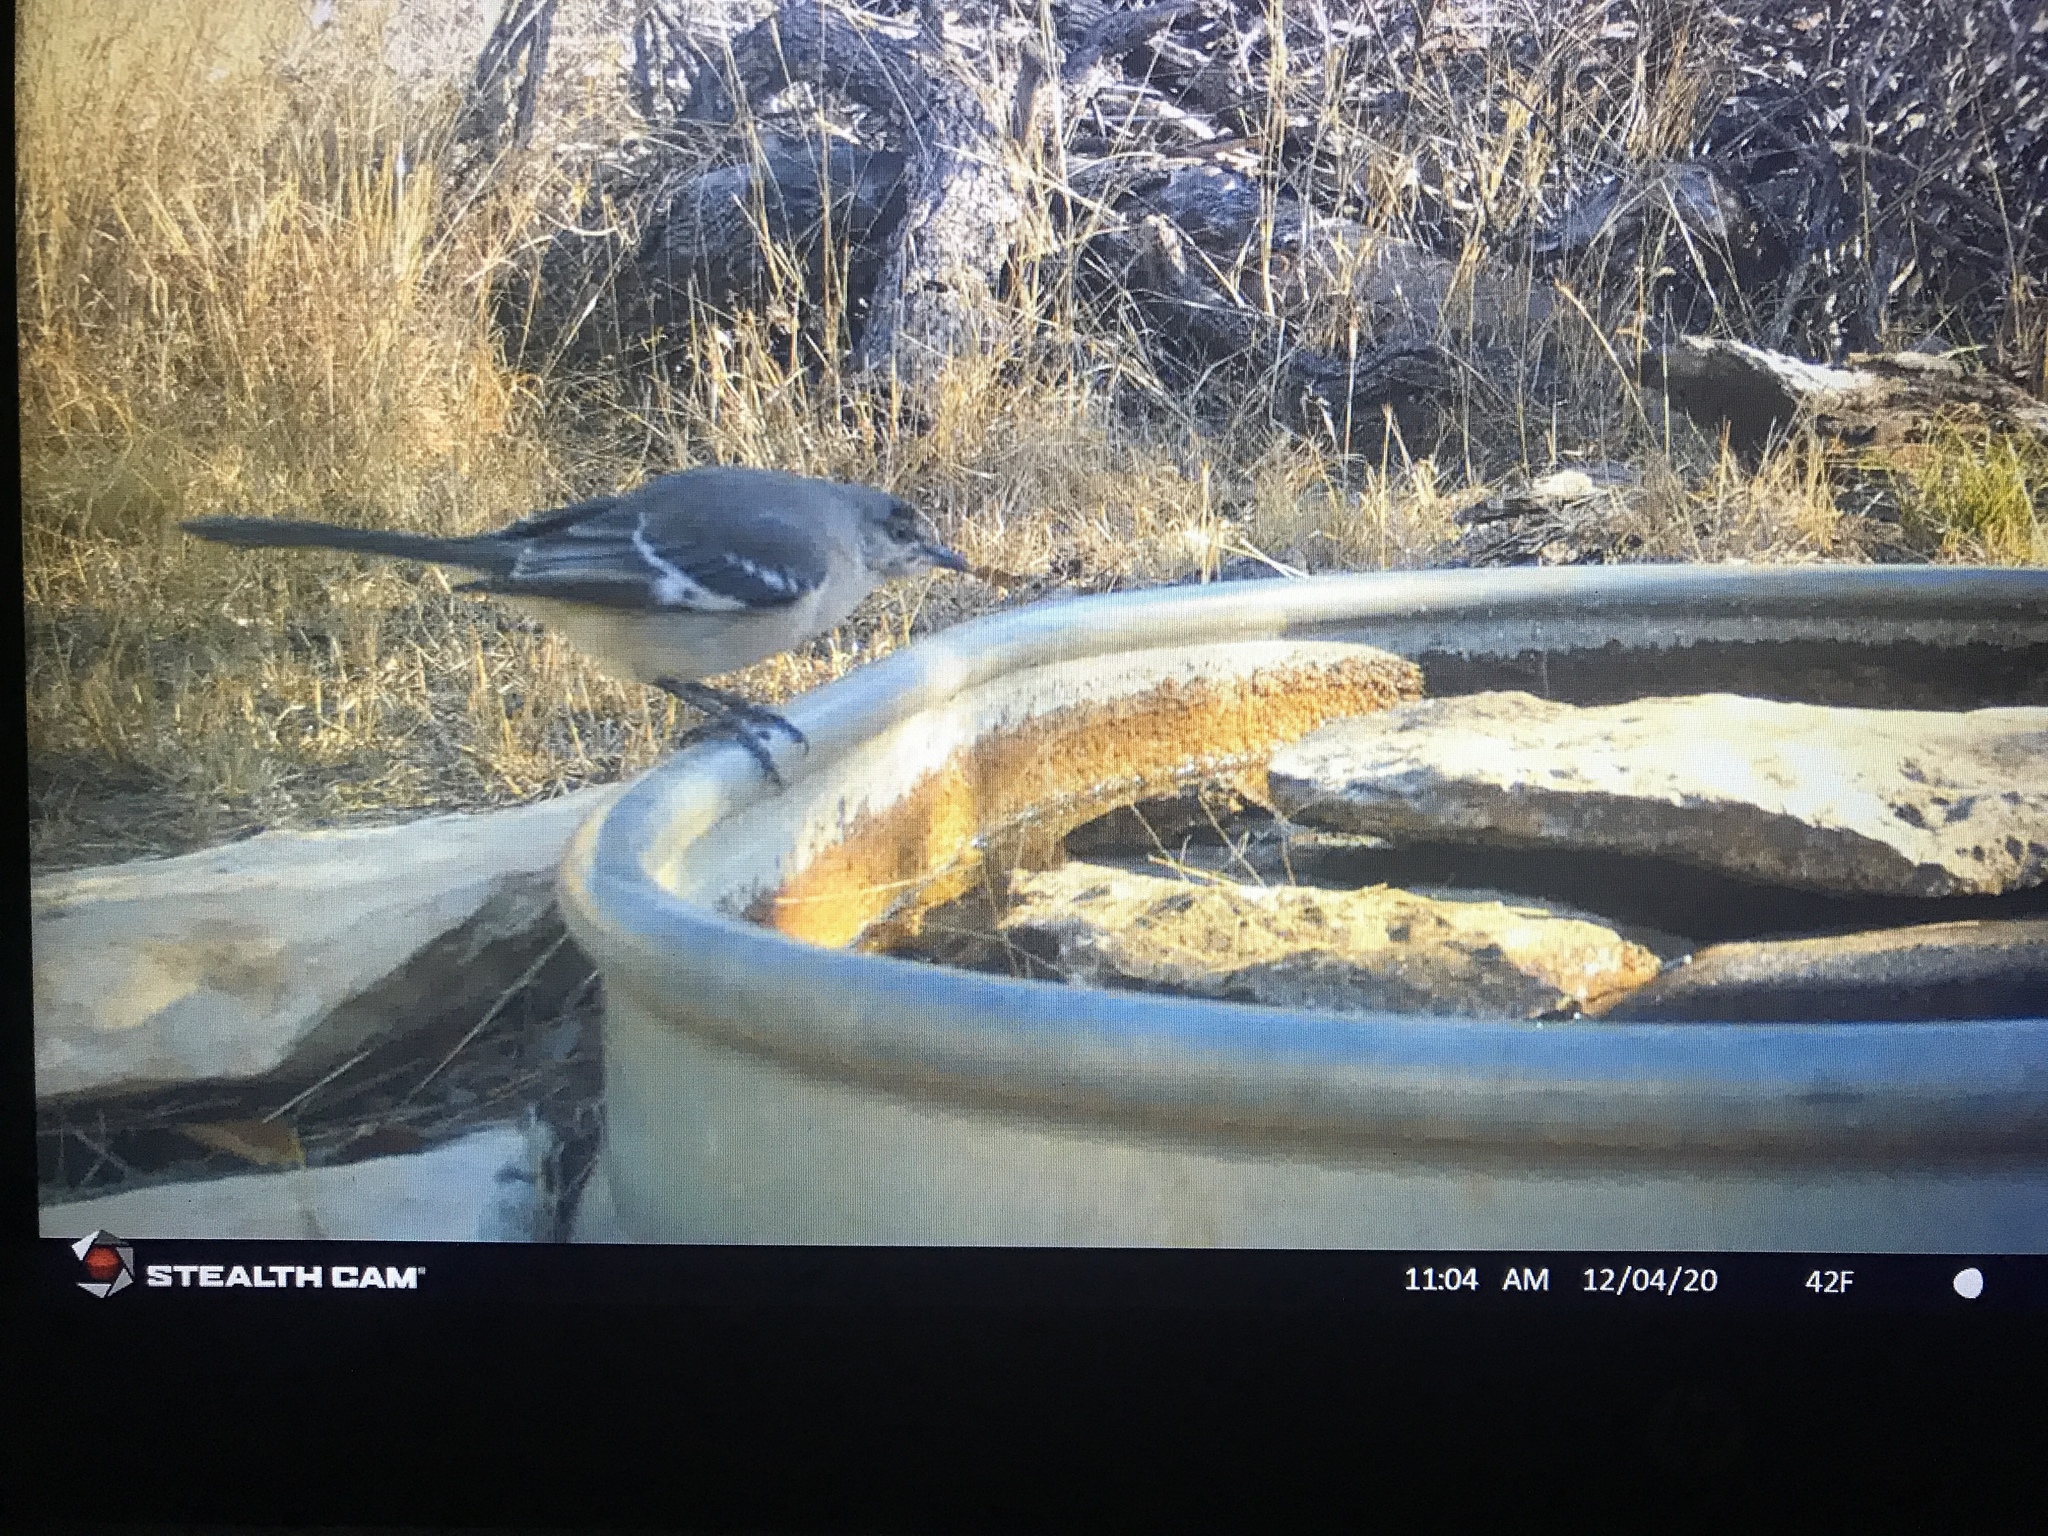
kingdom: Animalia
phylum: Chordata
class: Aves
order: Passeriformes
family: Mimidae
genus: Mimus
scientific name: Mimus polyglottos
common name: Northern mockingbird
